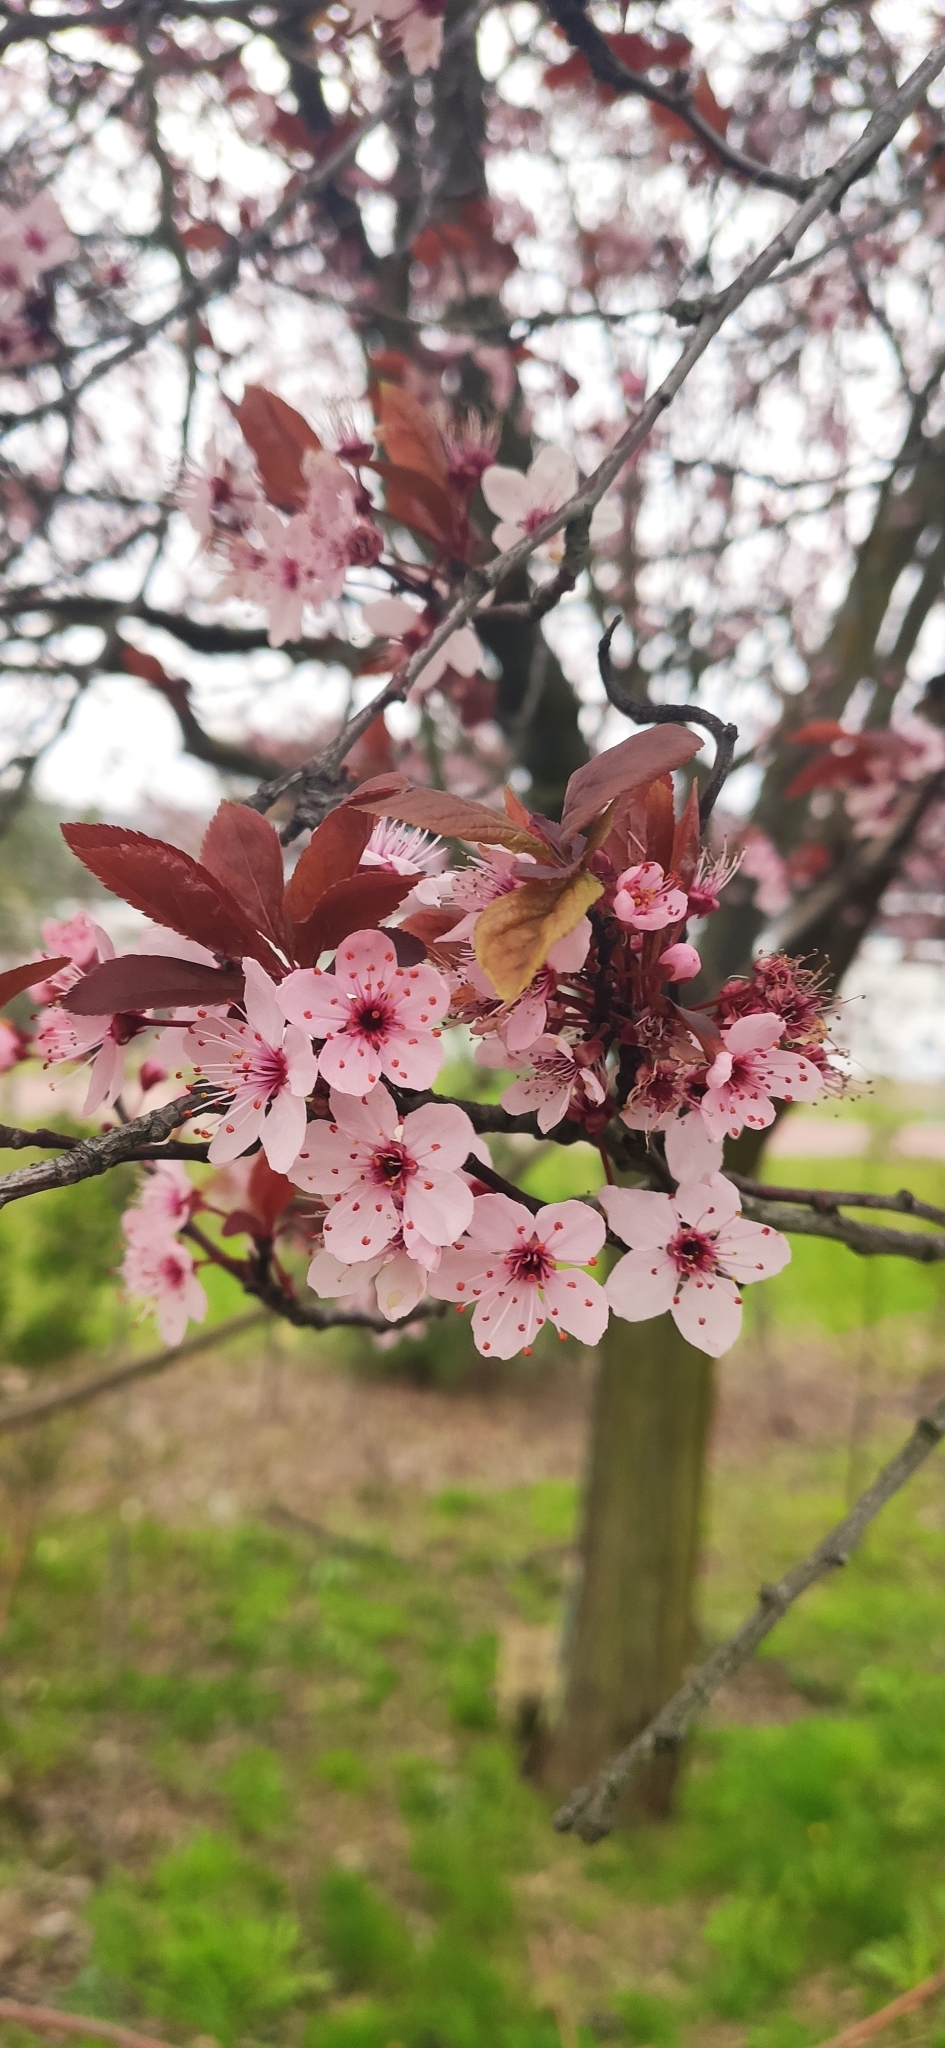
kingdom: Plantae
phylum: Tracheophyta
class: Magnoliopsida
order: Rosales
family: Rosaceae
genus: Prunus
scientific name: Prunus cerasifera
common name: Cherry plum
